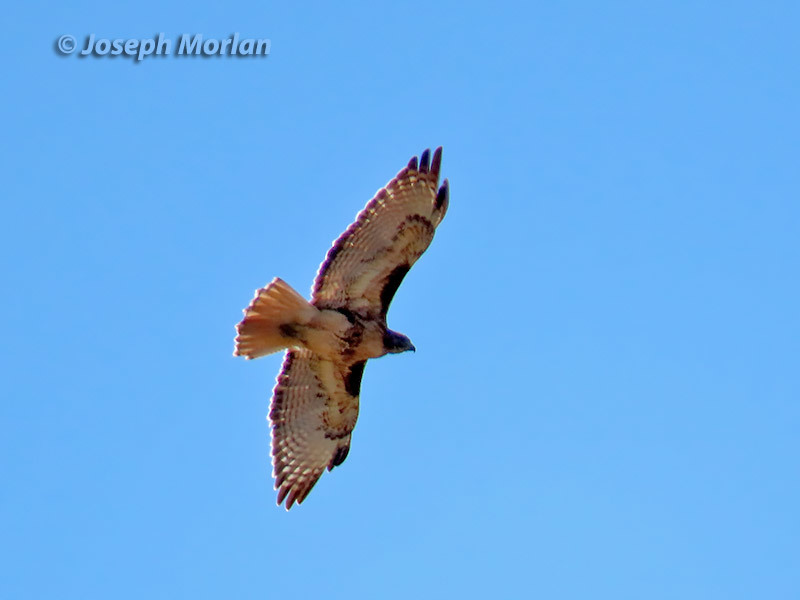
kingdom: Animalia
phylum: Chordata
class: Aves
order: Accipitriformes
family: Accipitridae
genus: Buteo
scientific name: Buteo jamaicensis
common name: Red-tailed hawk
